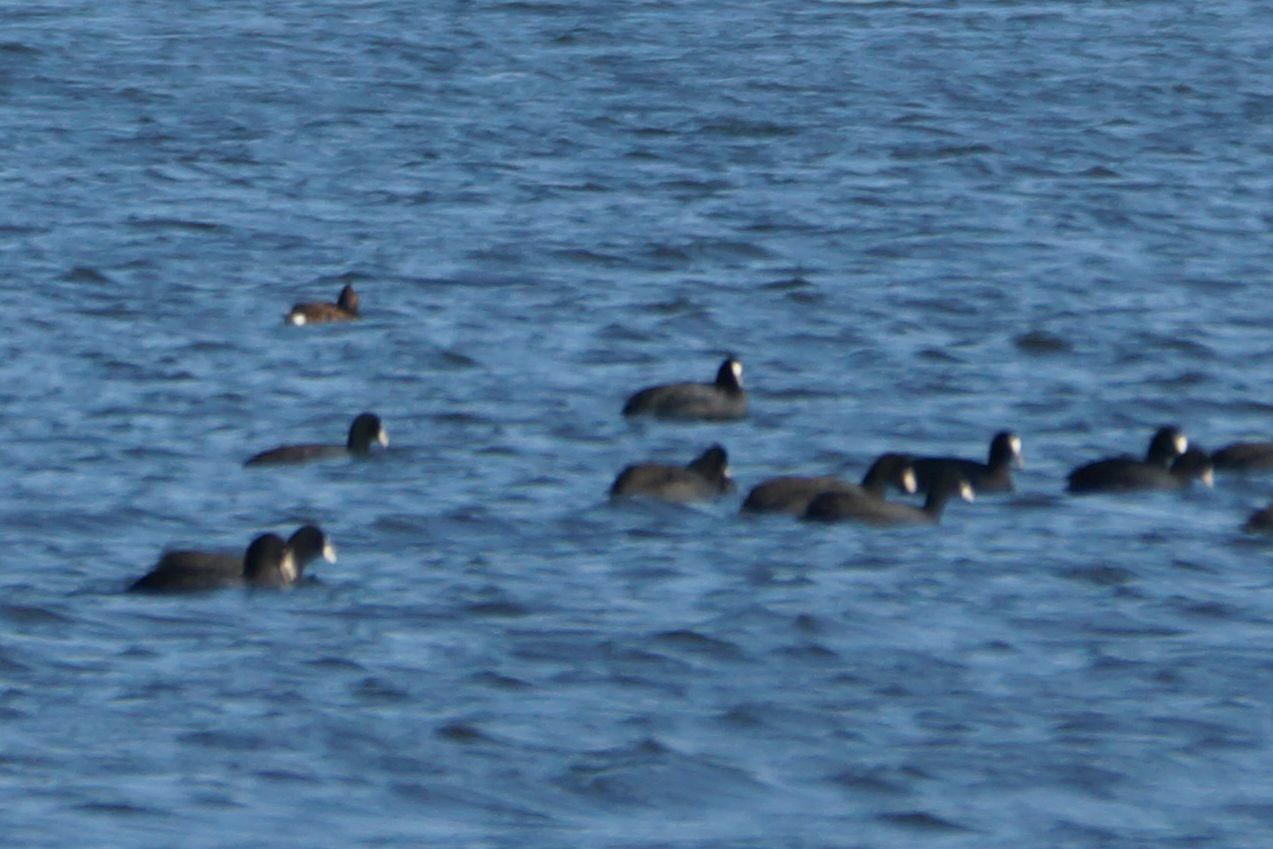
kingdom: Animalia
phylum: Chordata
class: Aves
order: Anseriformes
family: Anatidae
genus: Aythya
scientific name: Aythya nyroca
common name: Ferruginous duck
